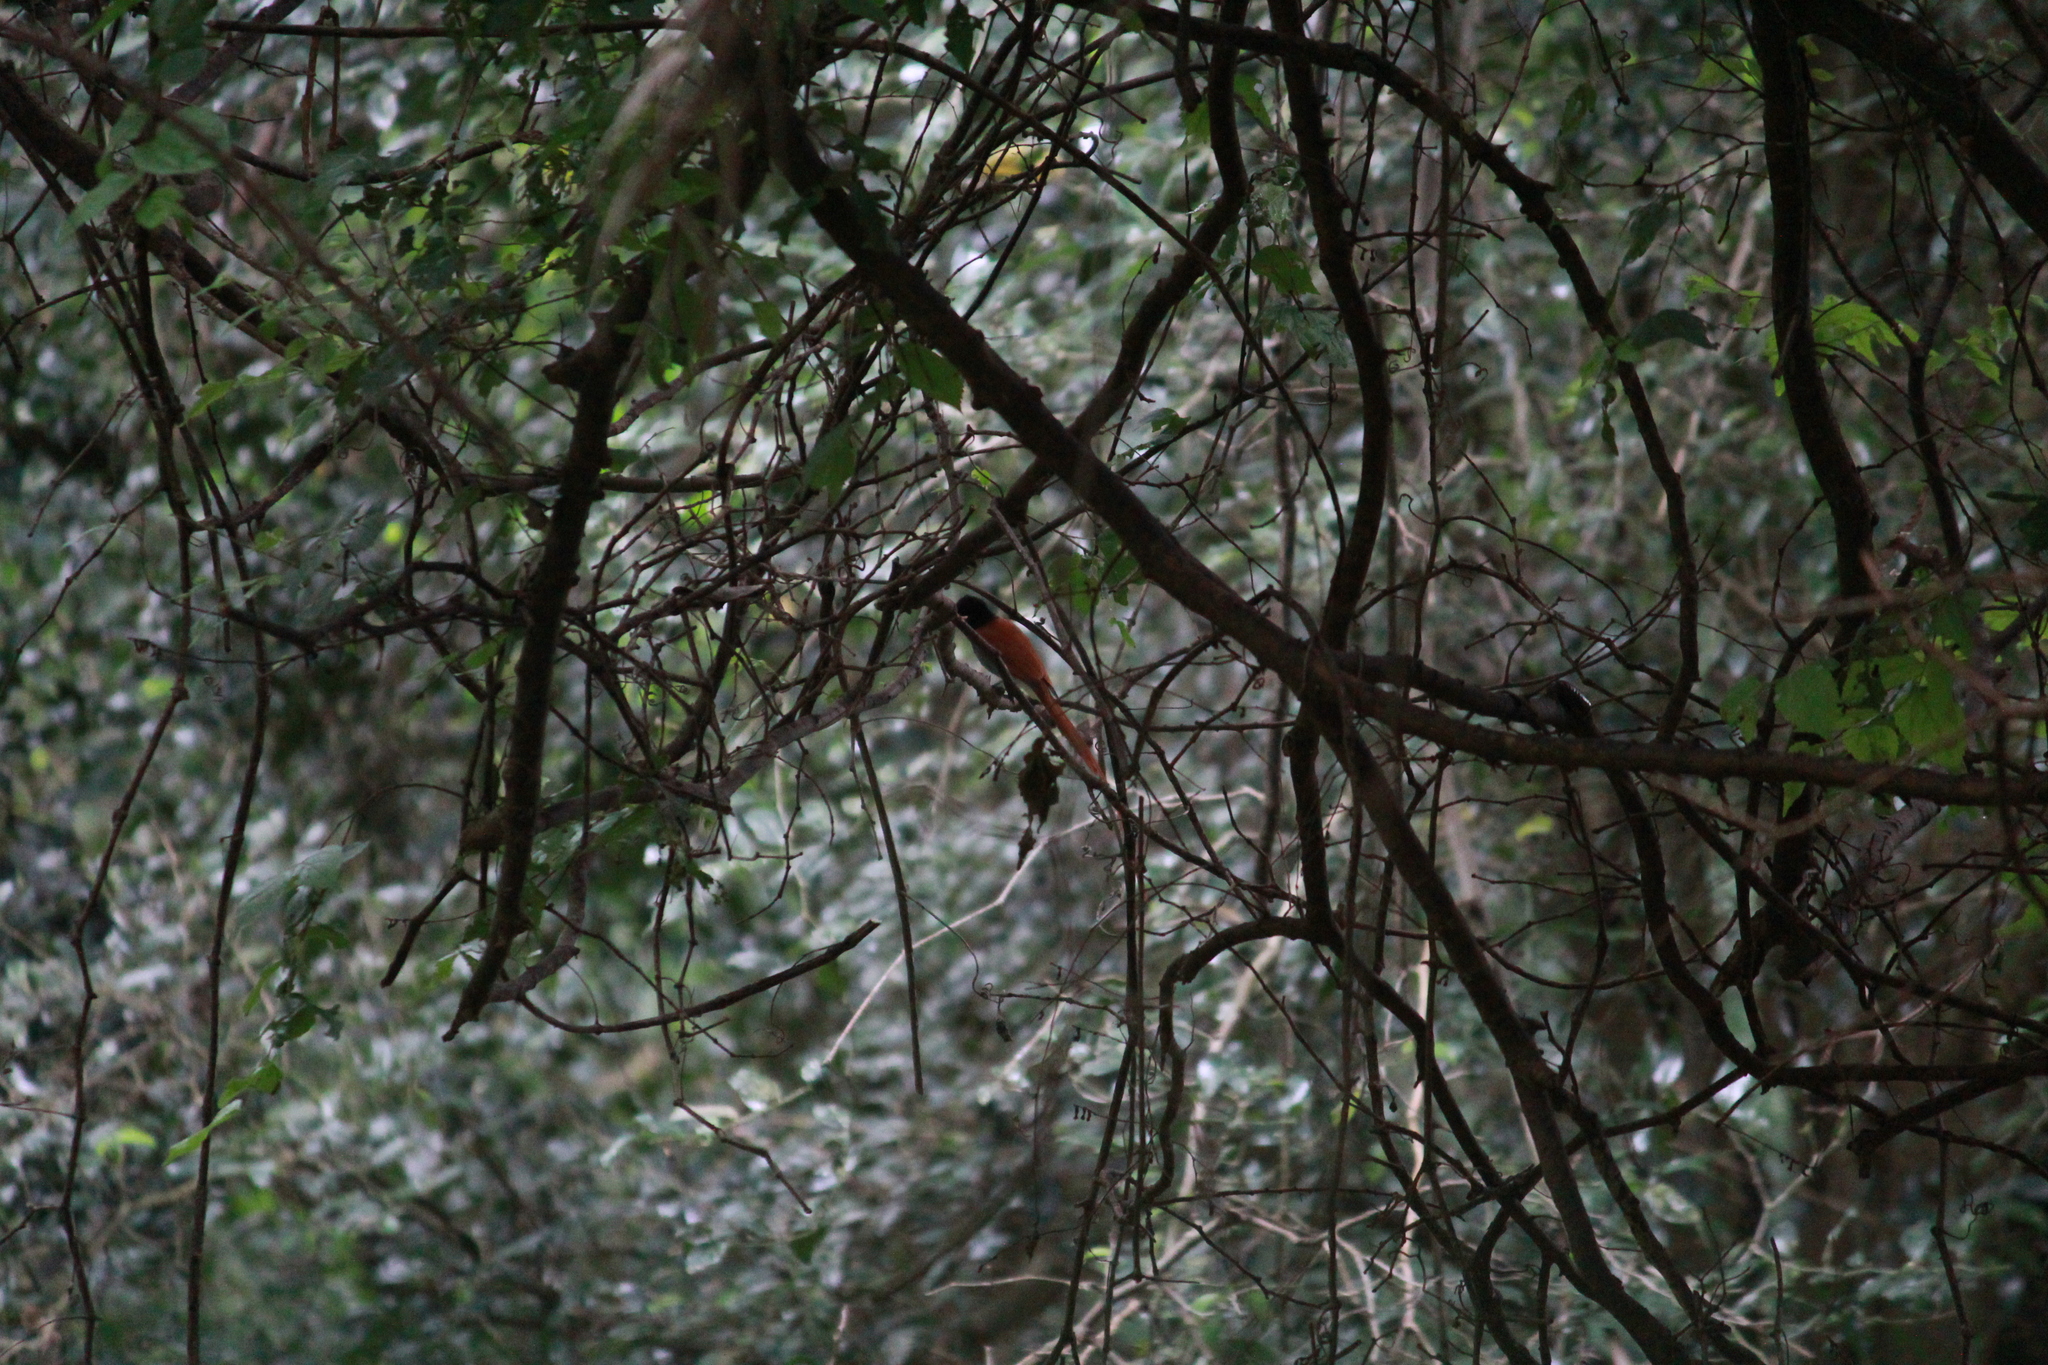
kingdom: Animalia
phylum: Chordata
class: Aves
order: Passeriformes
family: Monarchidae
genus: Terpsiphone
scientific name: Terpsiphone viridis
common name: African paradise flycatcher
